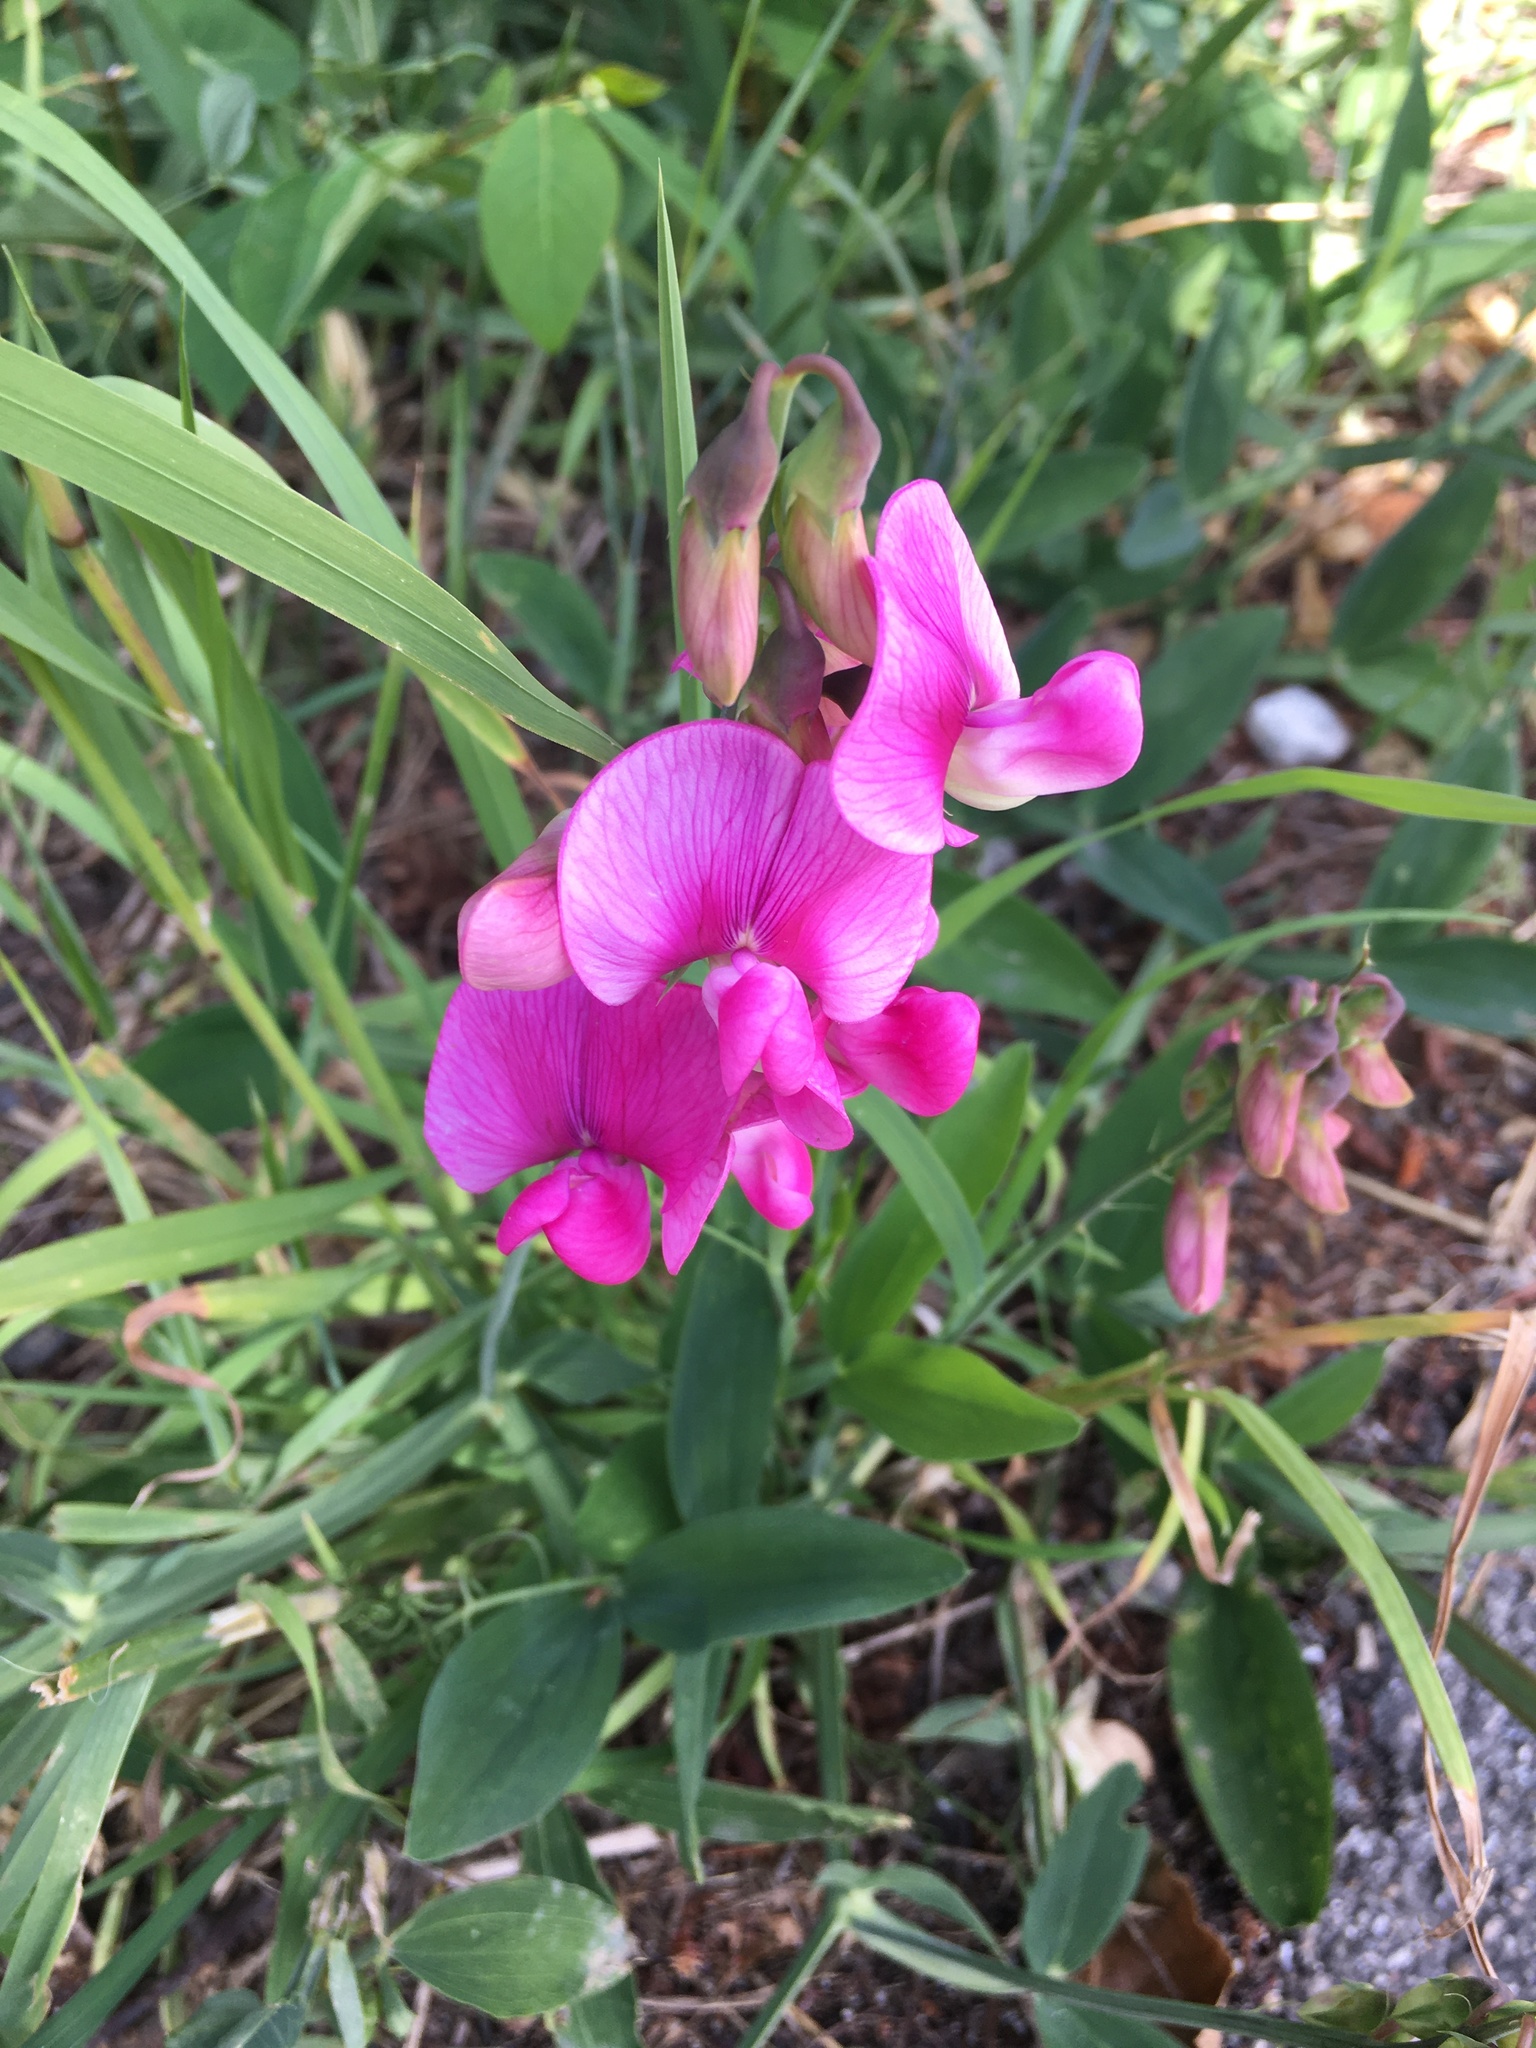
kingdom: Plantae
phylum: Tracheophyta
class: Magnoliopsida
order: Fabales
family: Fabaceae
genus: Lathyrus
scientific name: Lathyrus latifolius
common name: Perennial pea
